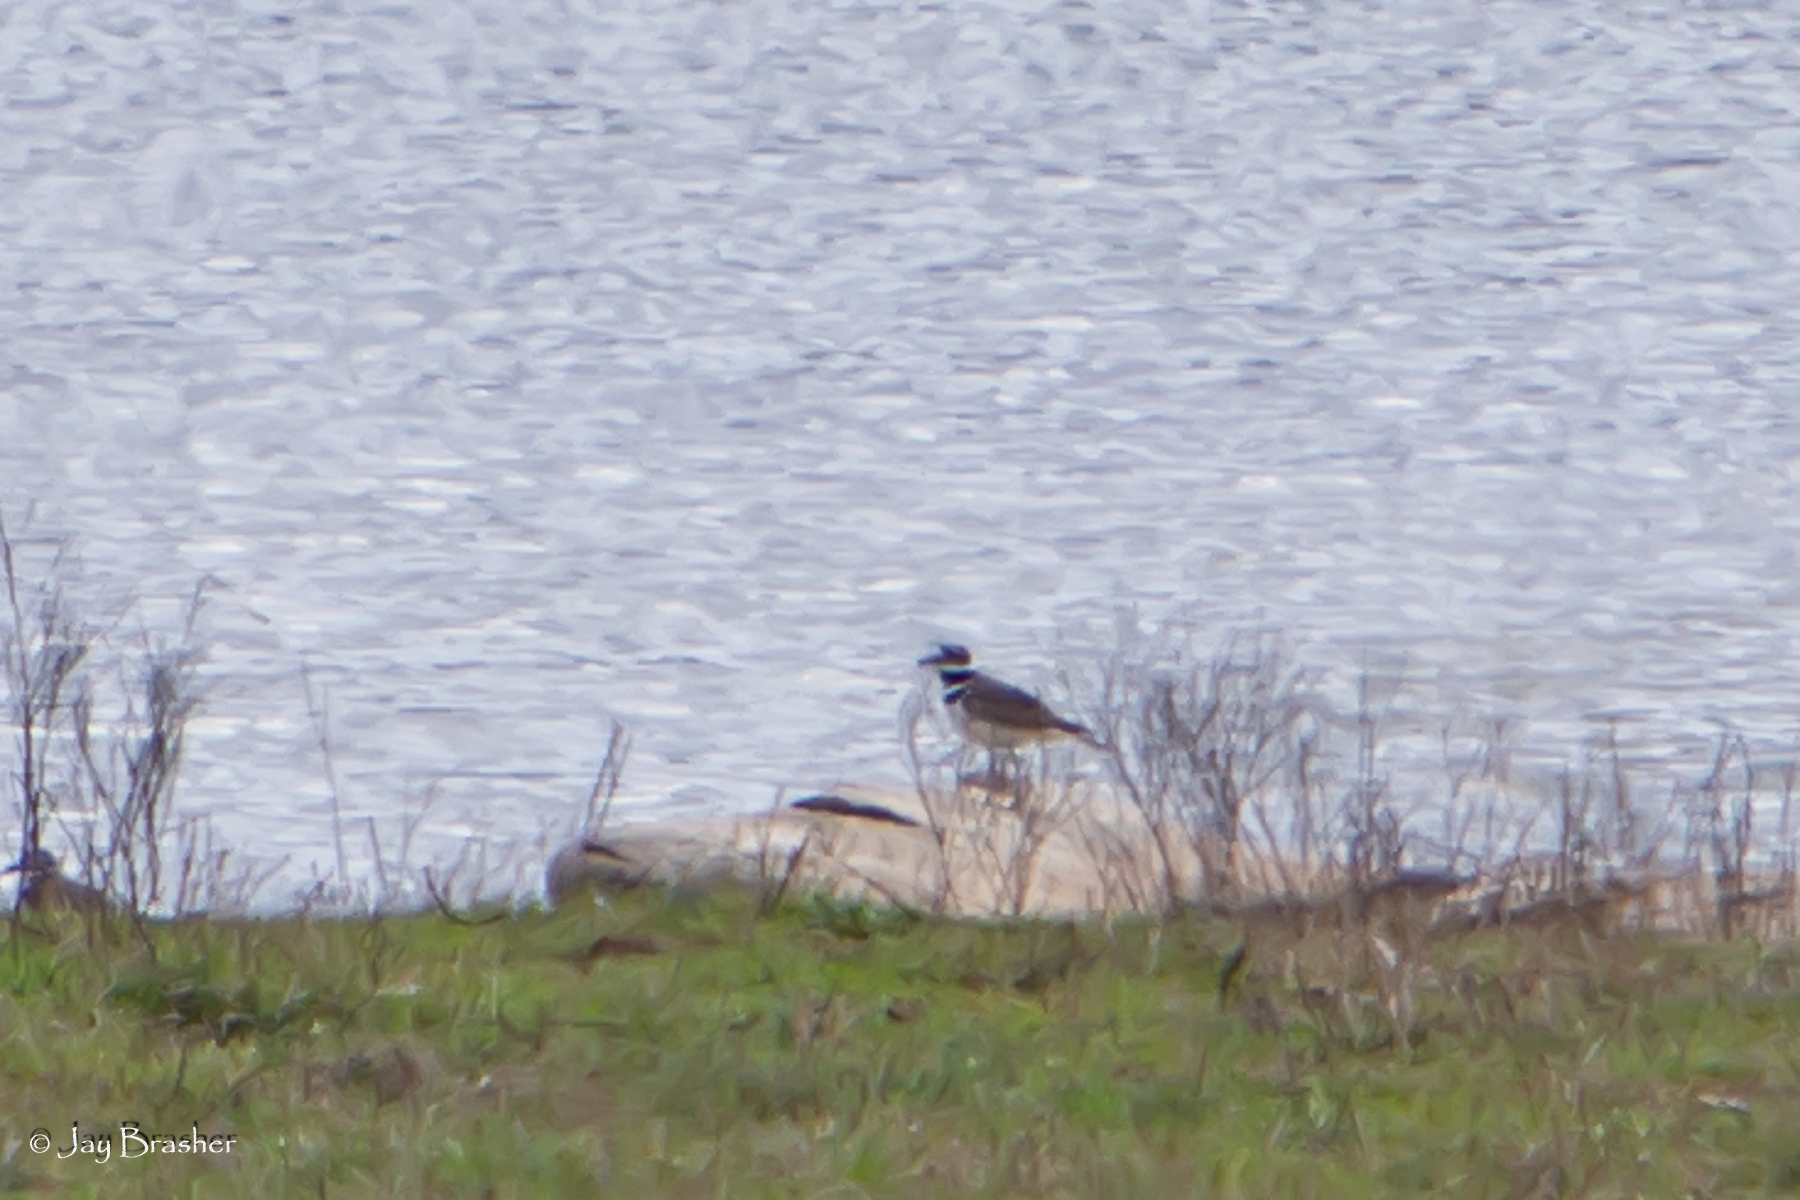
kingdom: Animalia
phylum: Chordata
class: Aves
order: Charadriiformes
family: Charadriidae
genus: Charadrius
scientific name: Charadrius vociferus
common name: Killdeer
